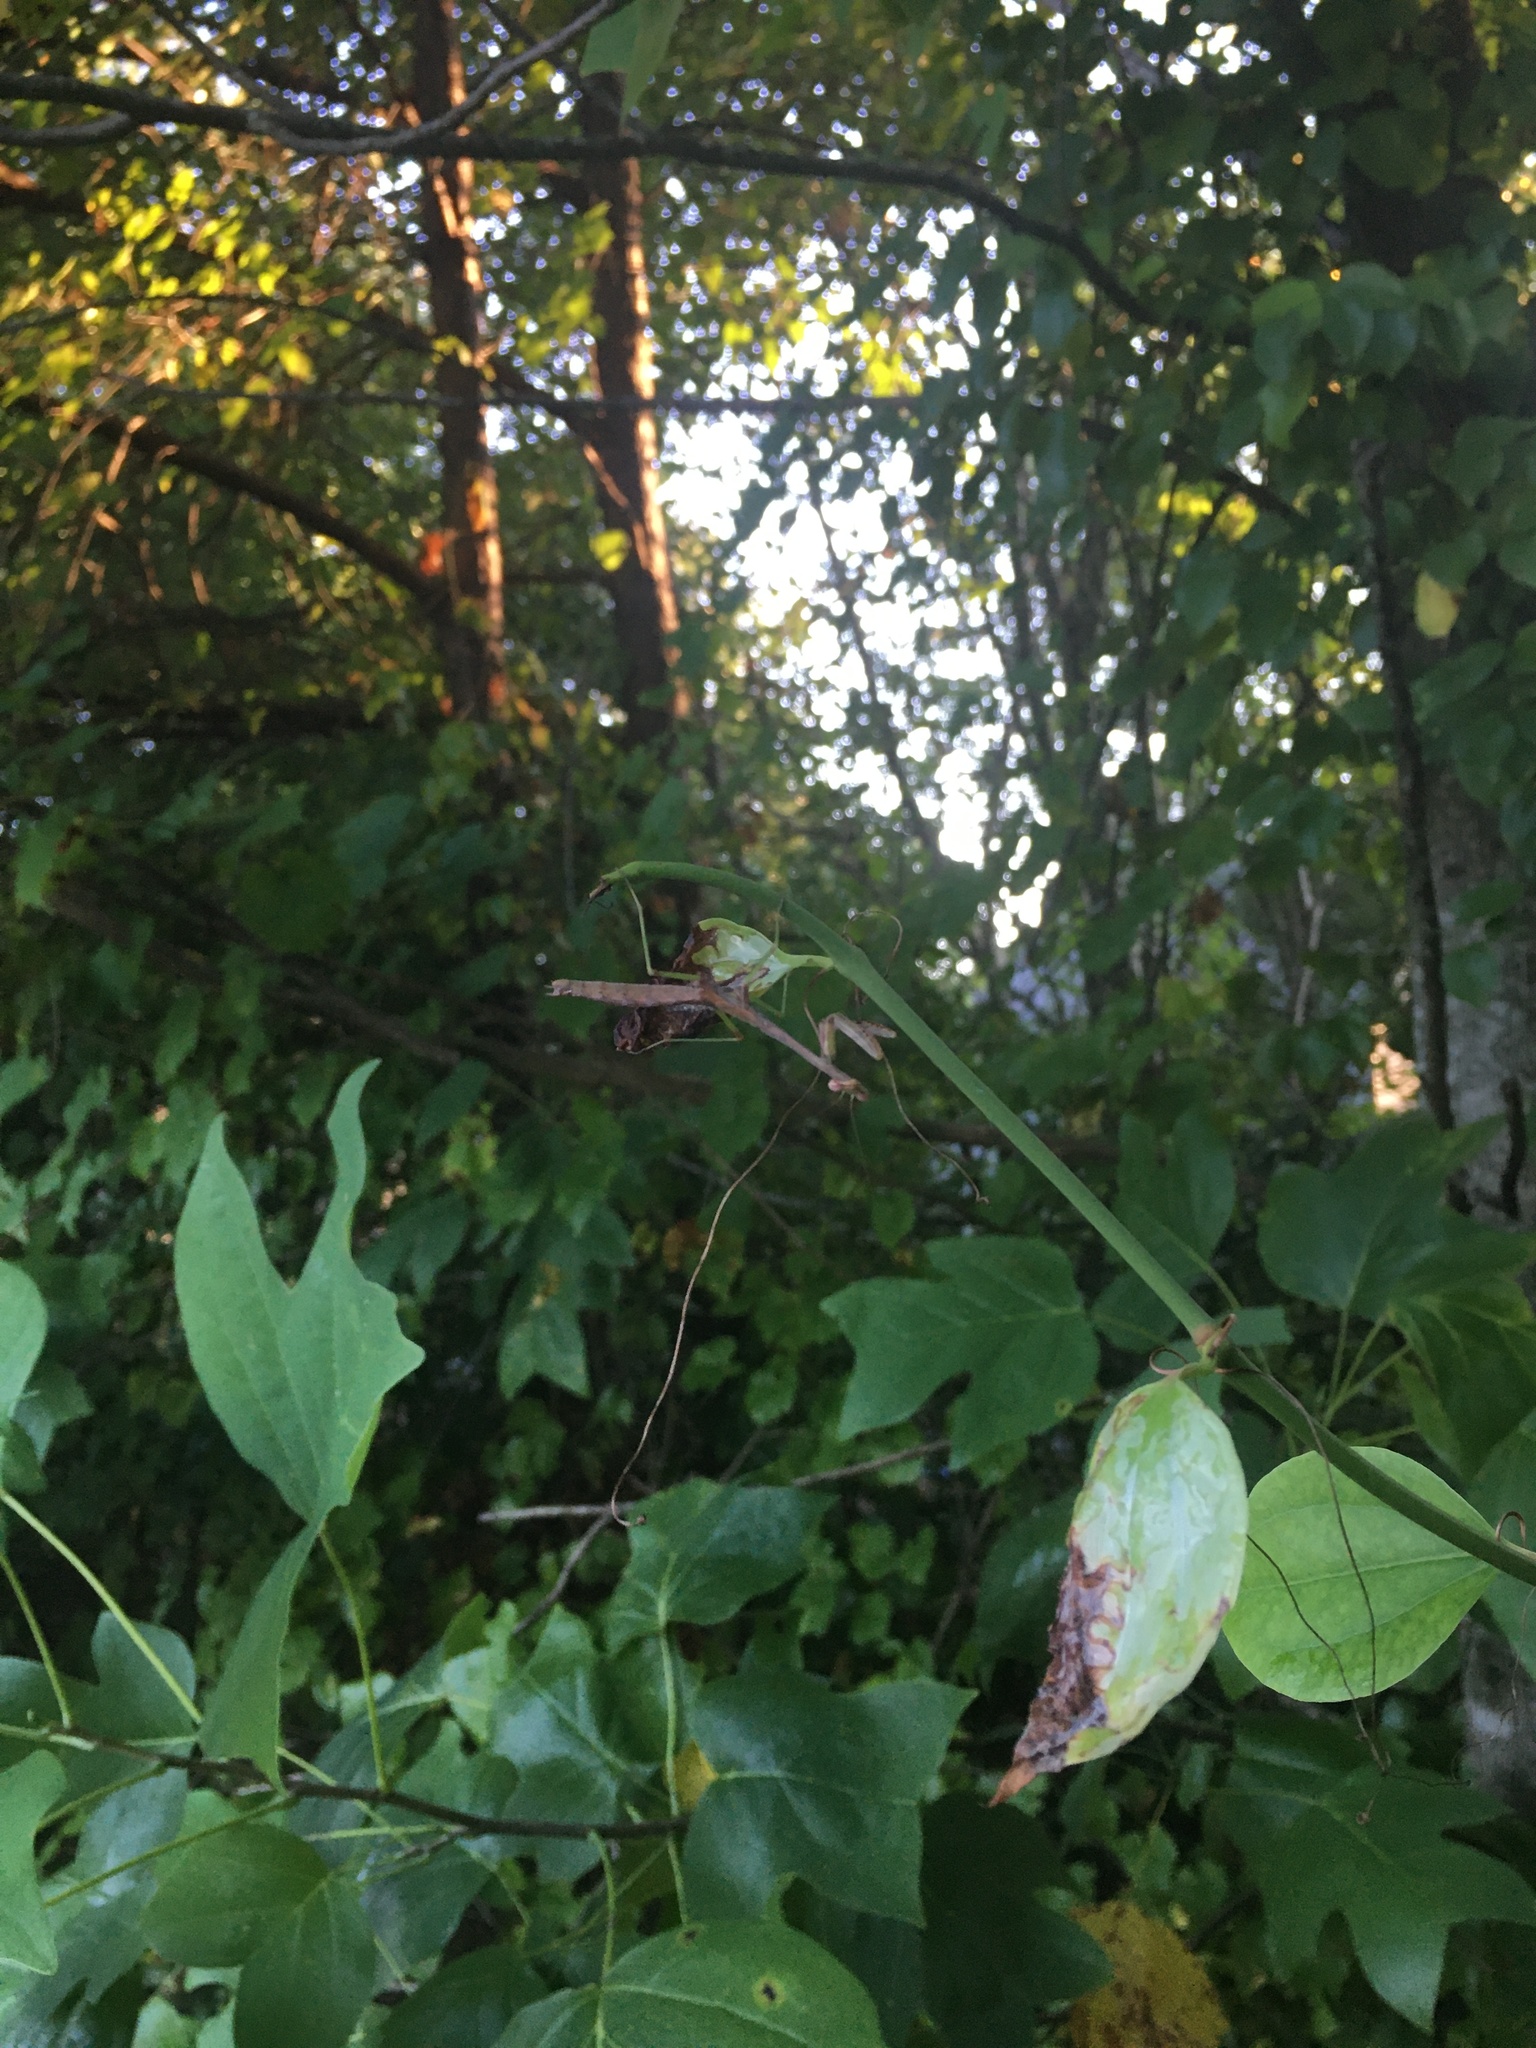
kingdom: Animalia
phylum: Arthropoda
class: Insecta
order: Mantodea
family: Mantidae
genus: Stagmomantis
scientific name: Stagmomantis carolina
